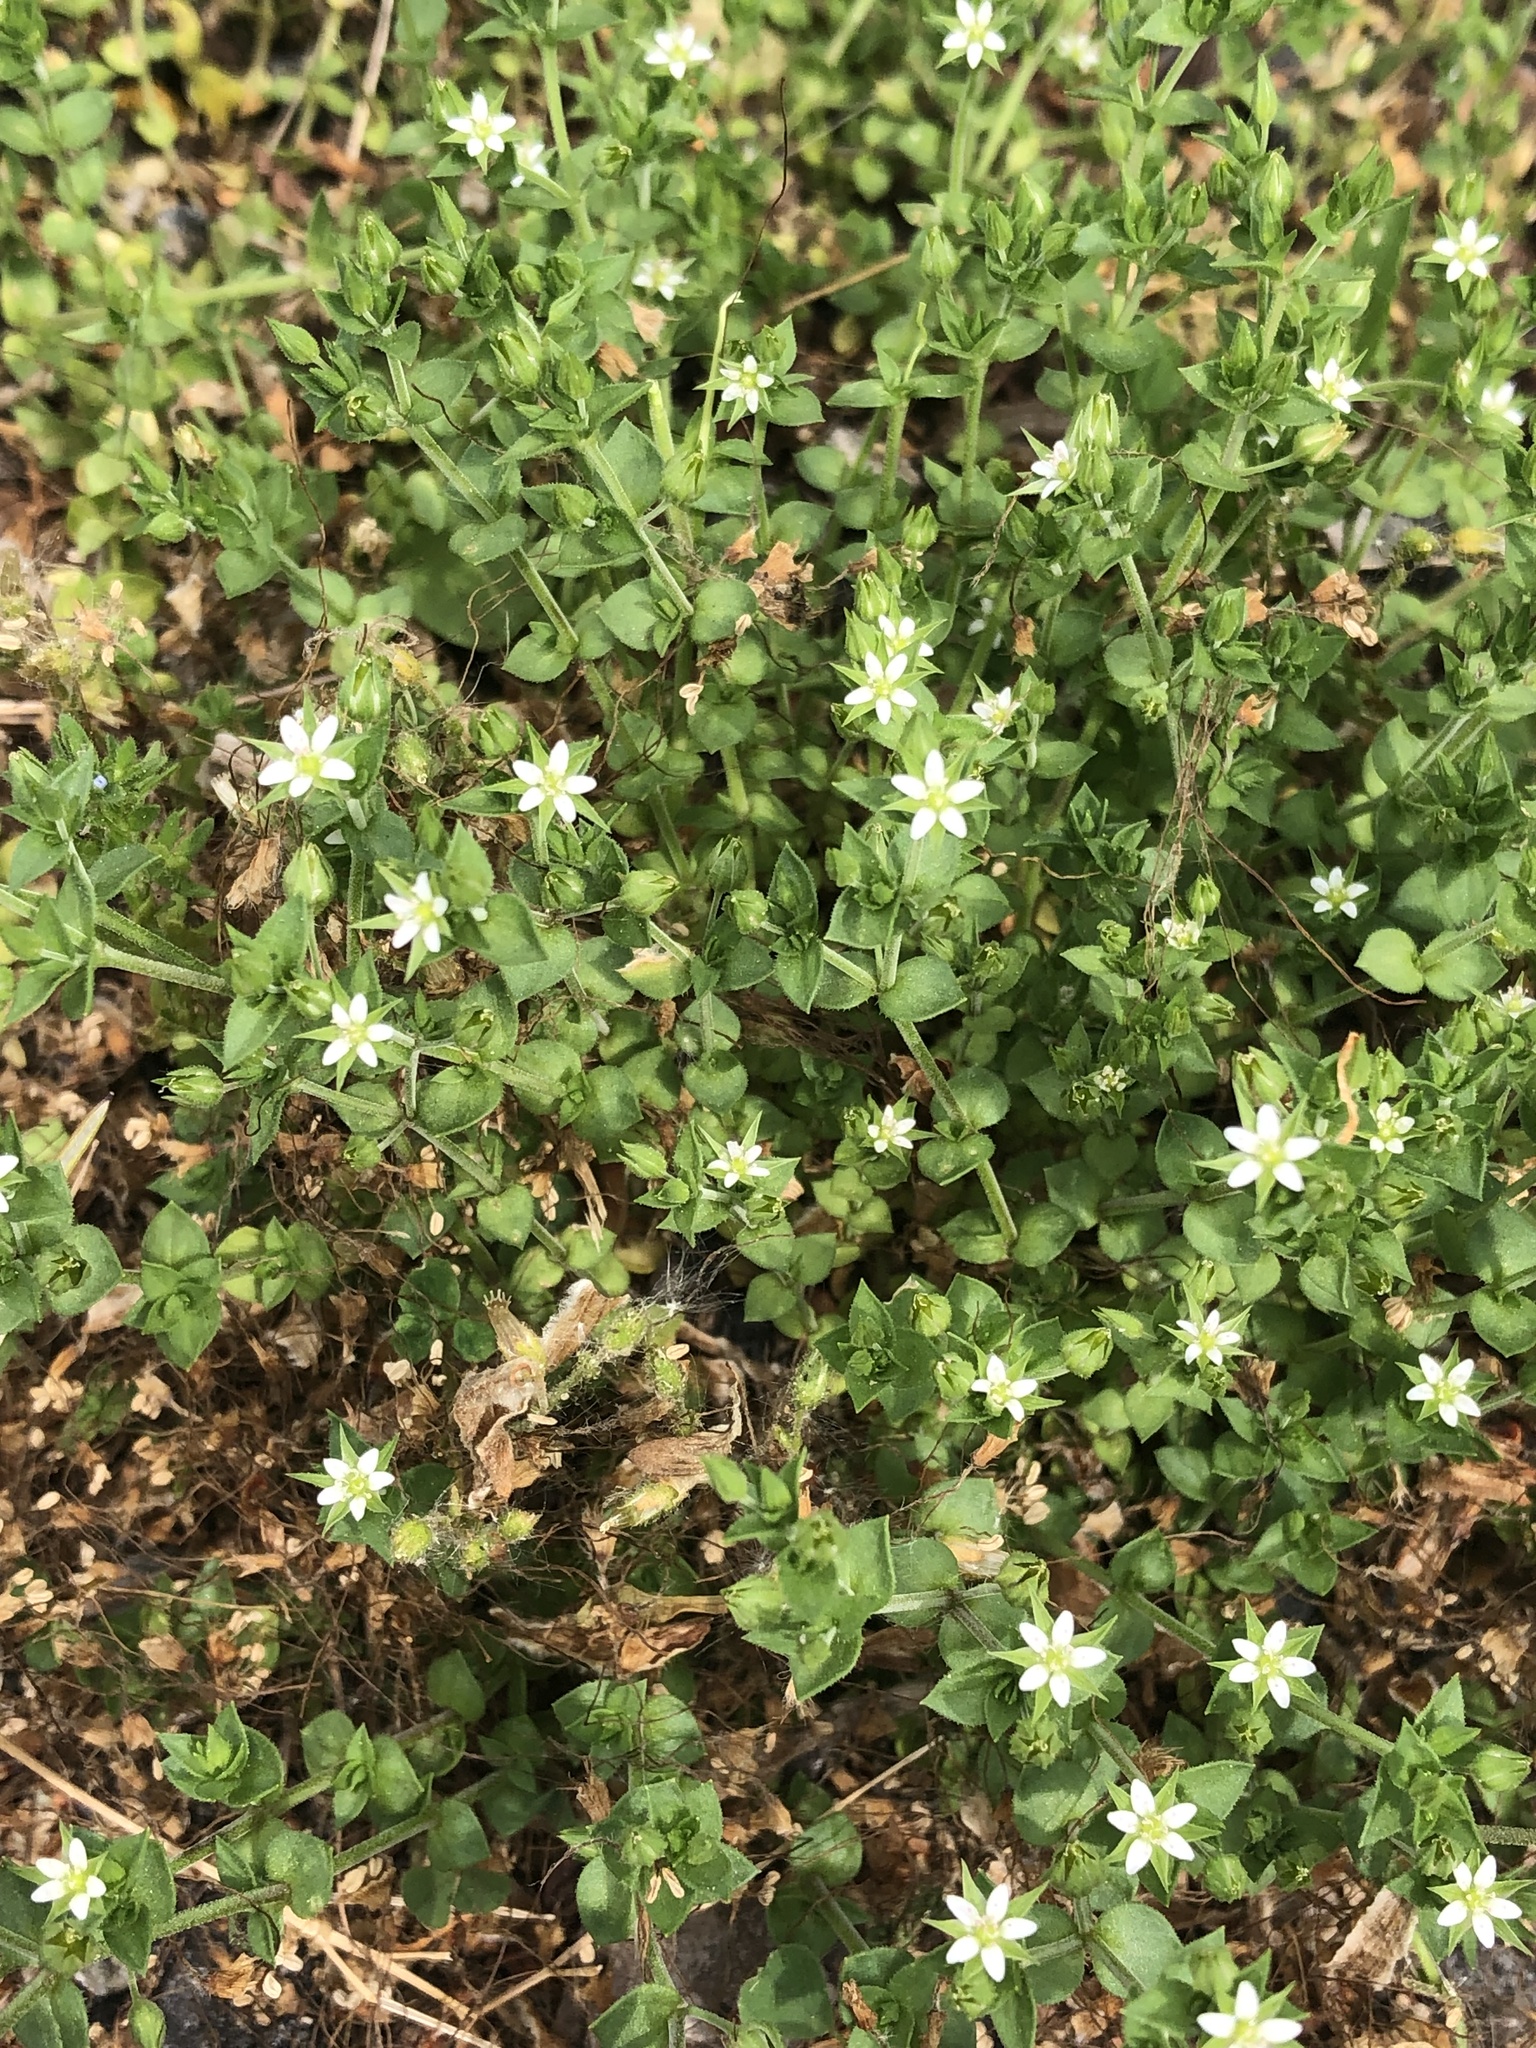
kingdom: Plantae
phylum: Tracheophyta
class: Magnoliopsida
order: Caryophyllales
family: Caryophyllaceae
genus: Arenaria
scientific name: Arenaria serpyllifolia
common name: Thyme-leaved sandwort
